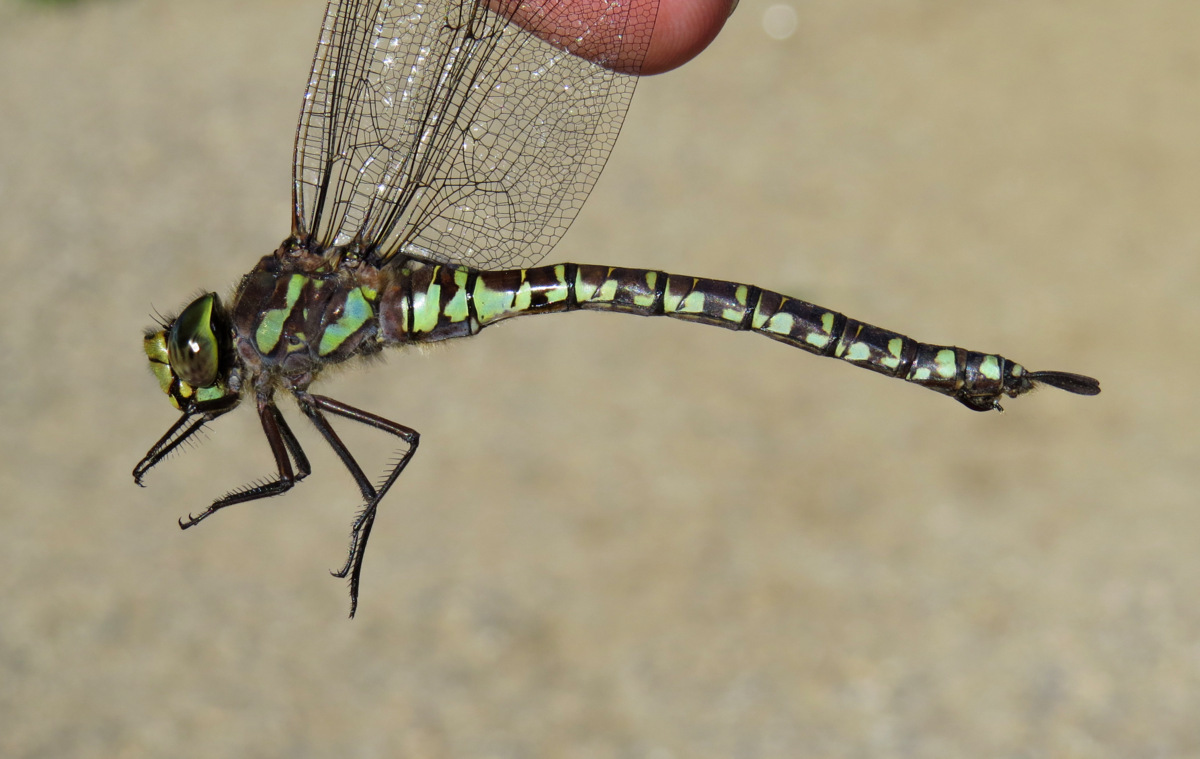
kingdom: Animalia
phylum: Arthropoda
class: Insecta
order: Odonata
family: Aeshnidae
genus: Aeshna
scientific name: Aeshna eremita
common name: Lake darner
